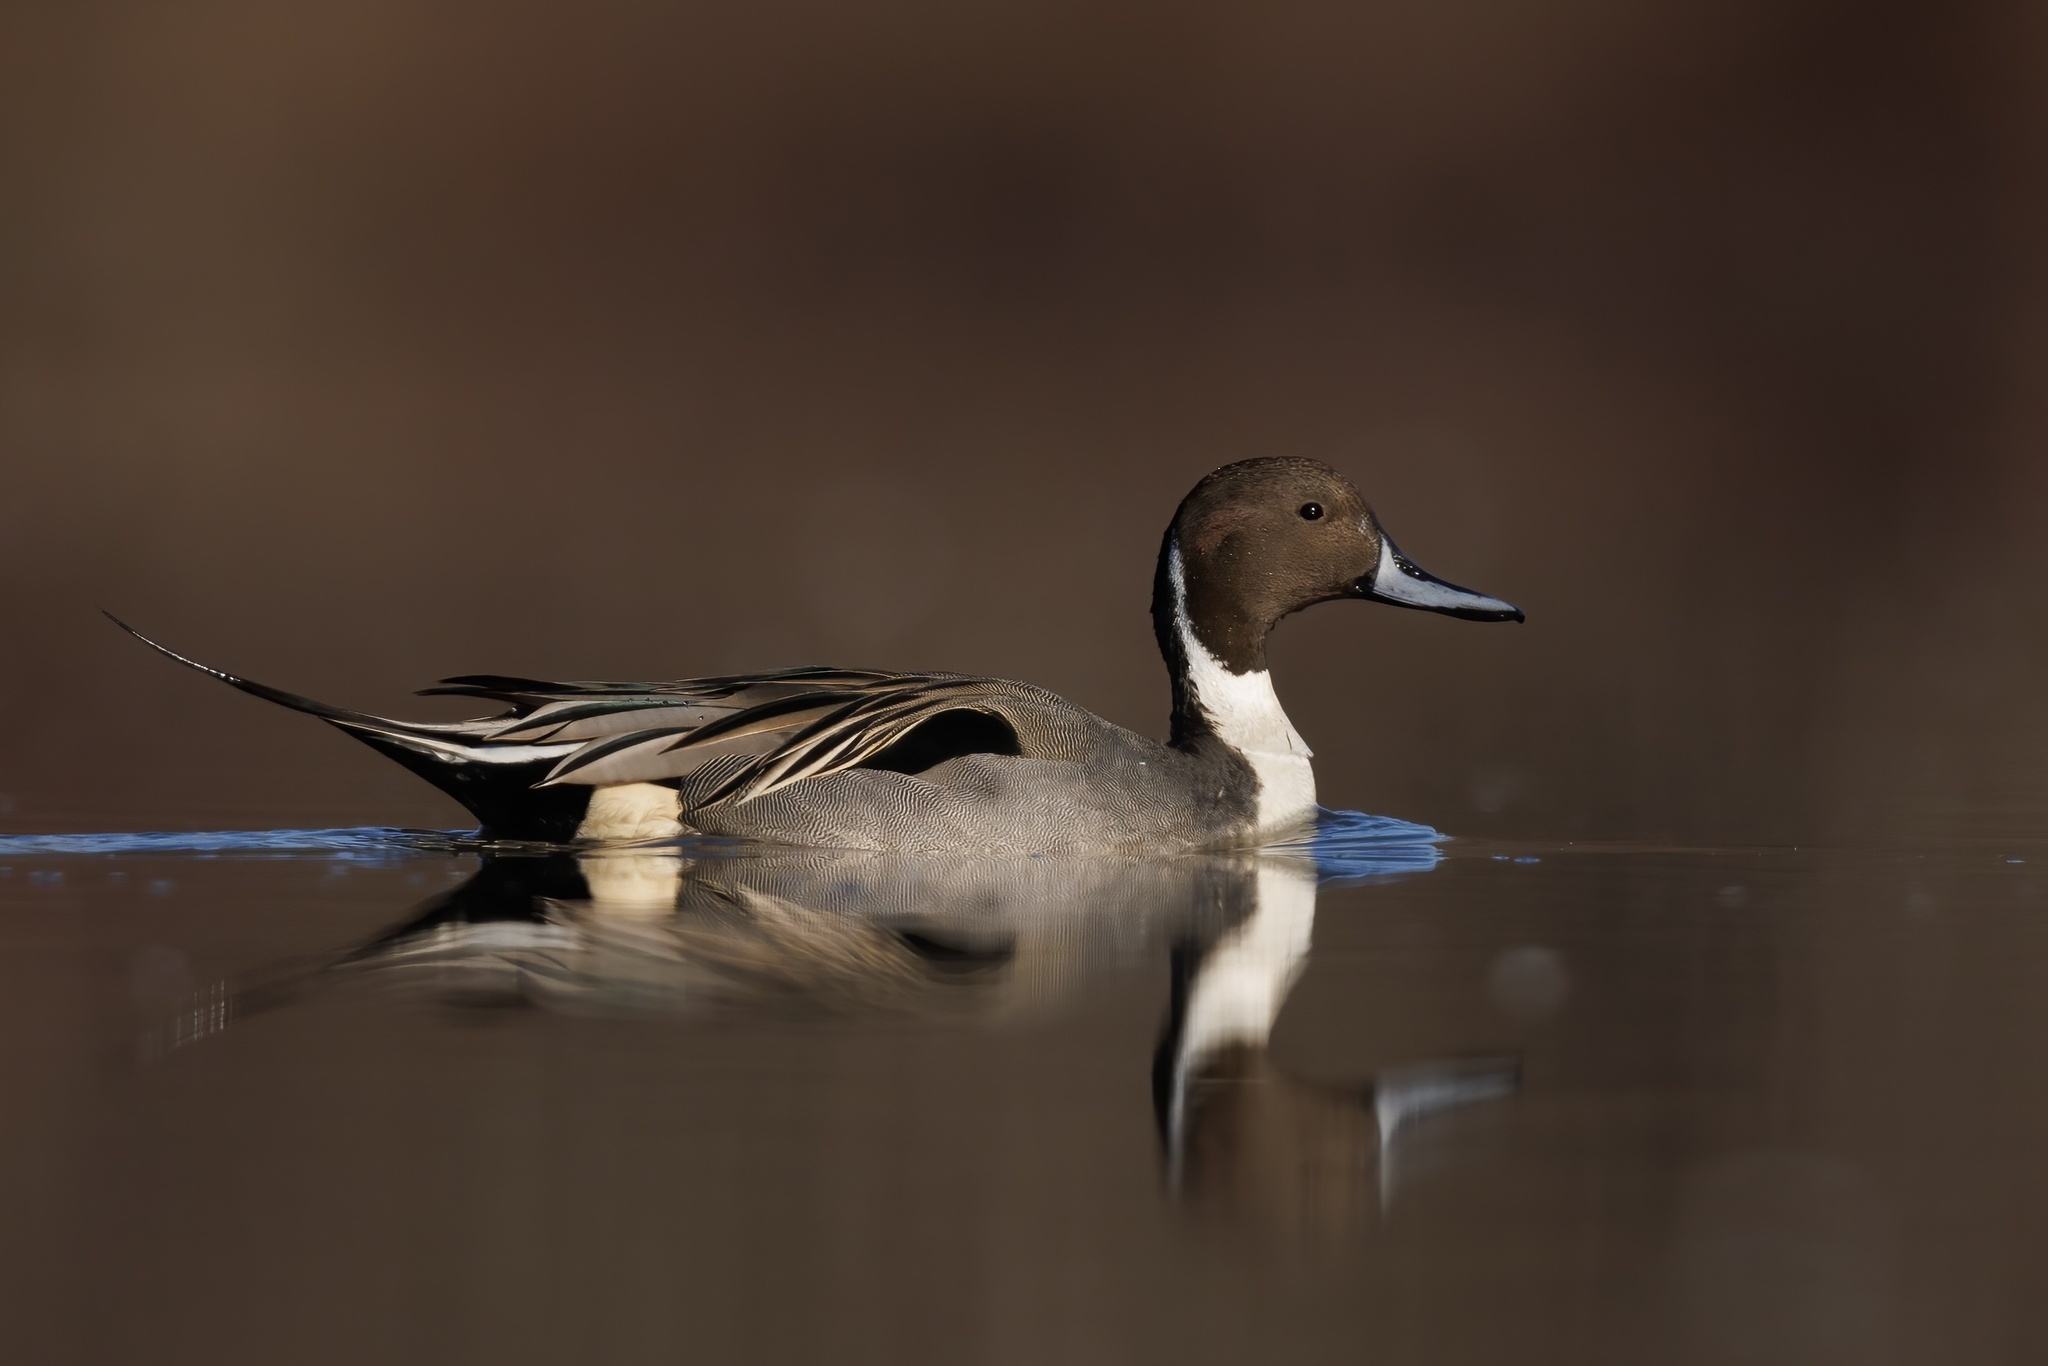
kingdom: Animalia
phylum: Chordata
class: Aves
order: Anseriformes
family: Anatidae
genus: Anas
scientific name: Anas acuta
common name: Northern pintail
